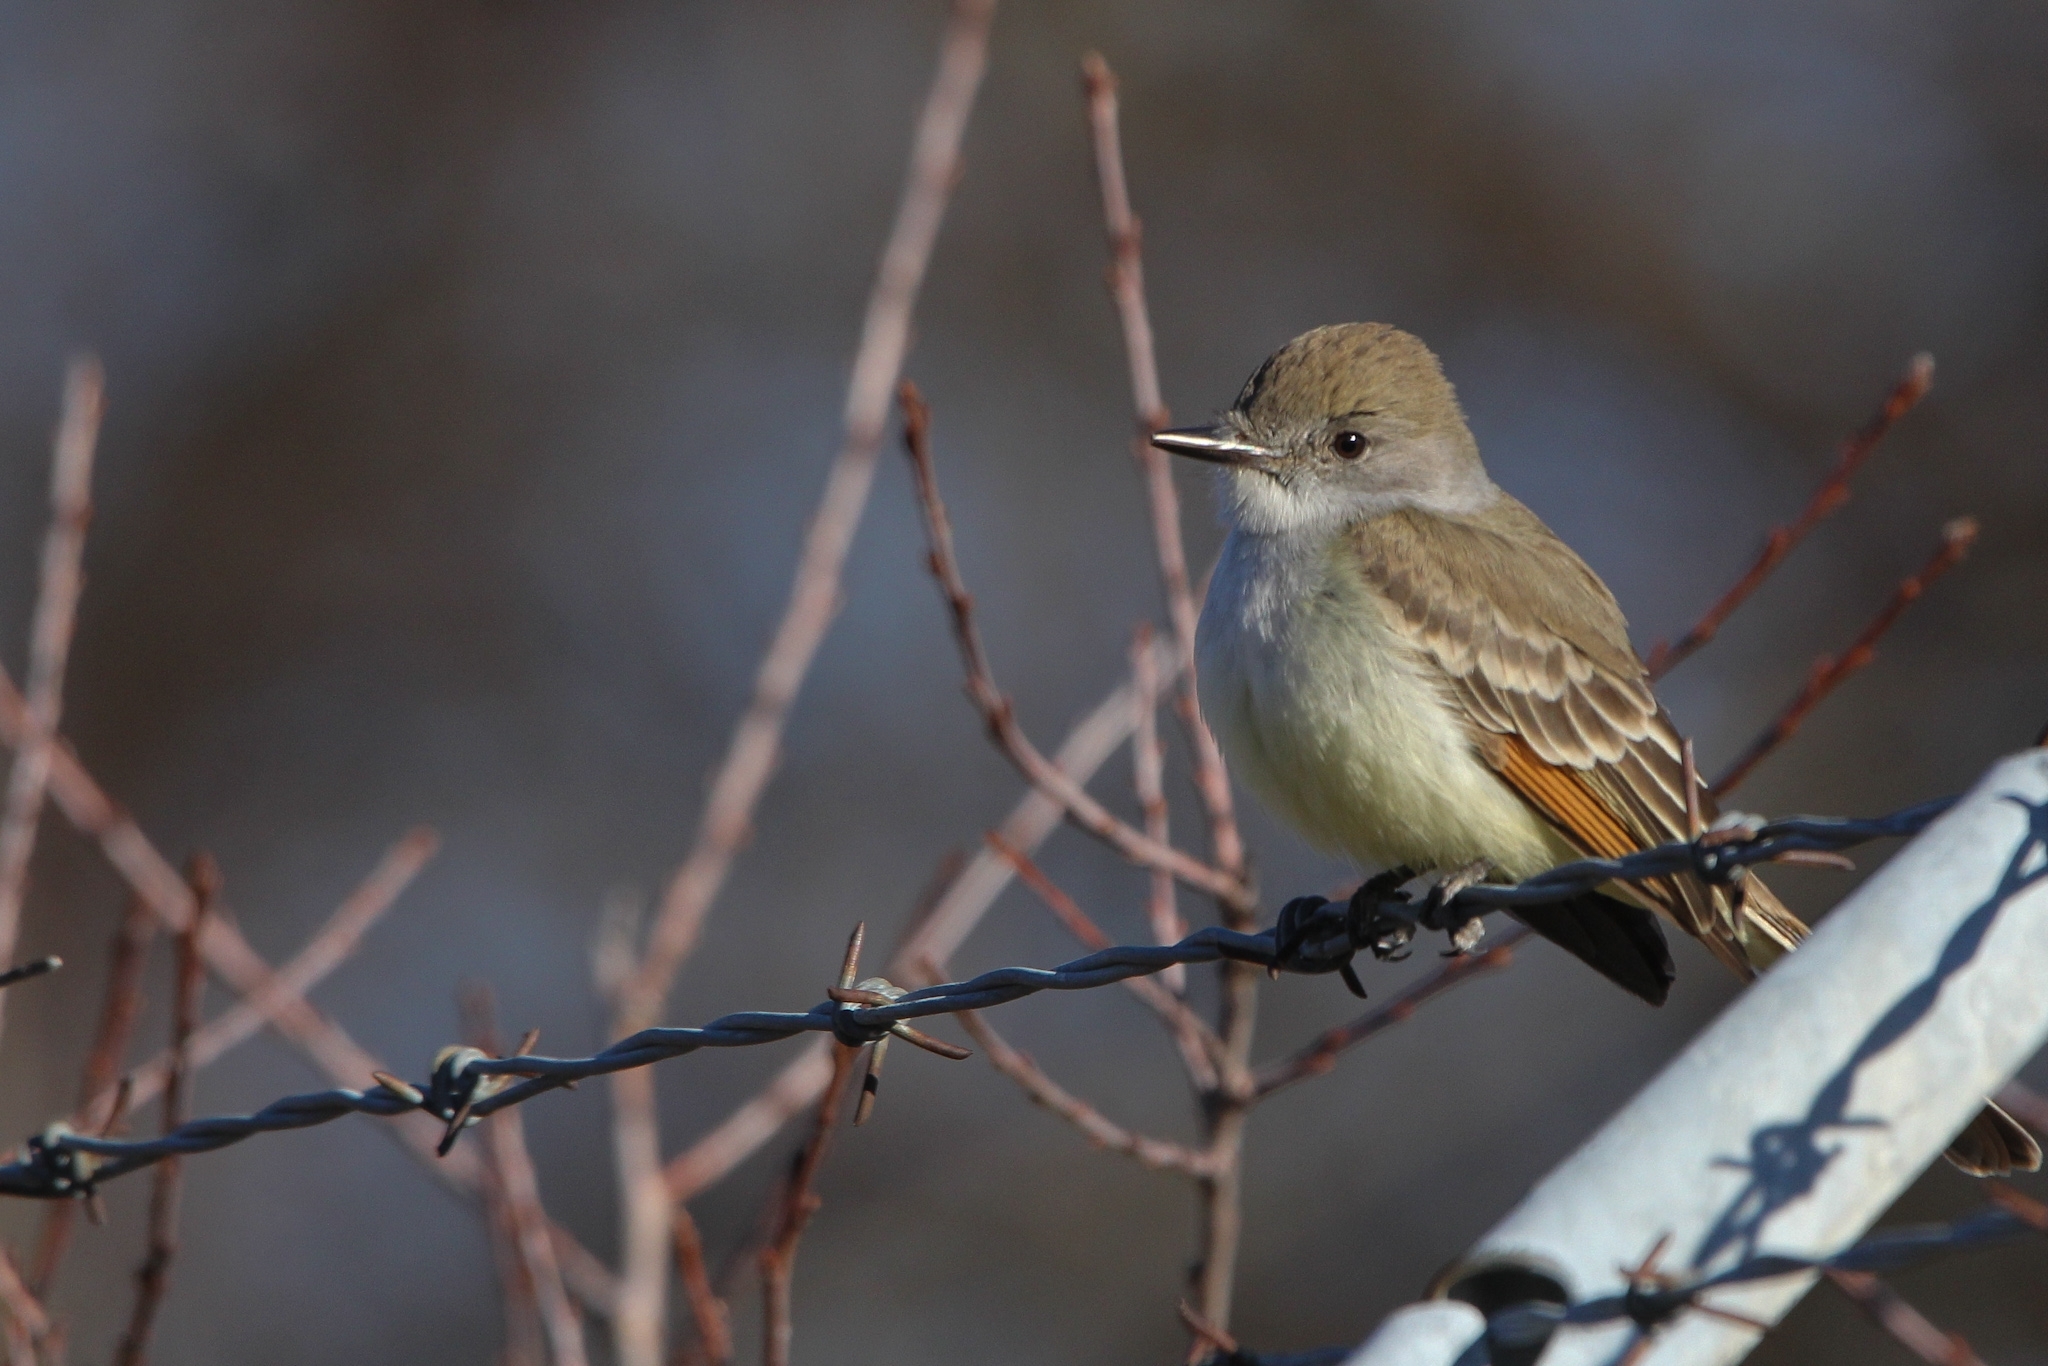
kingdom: Animalia
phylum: Chordata
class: Aves
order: Passeriformes
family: Tyrannidae
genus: Myiarchus
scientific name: Myiarchus cinerascens
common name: Ash-throated flycatcher
